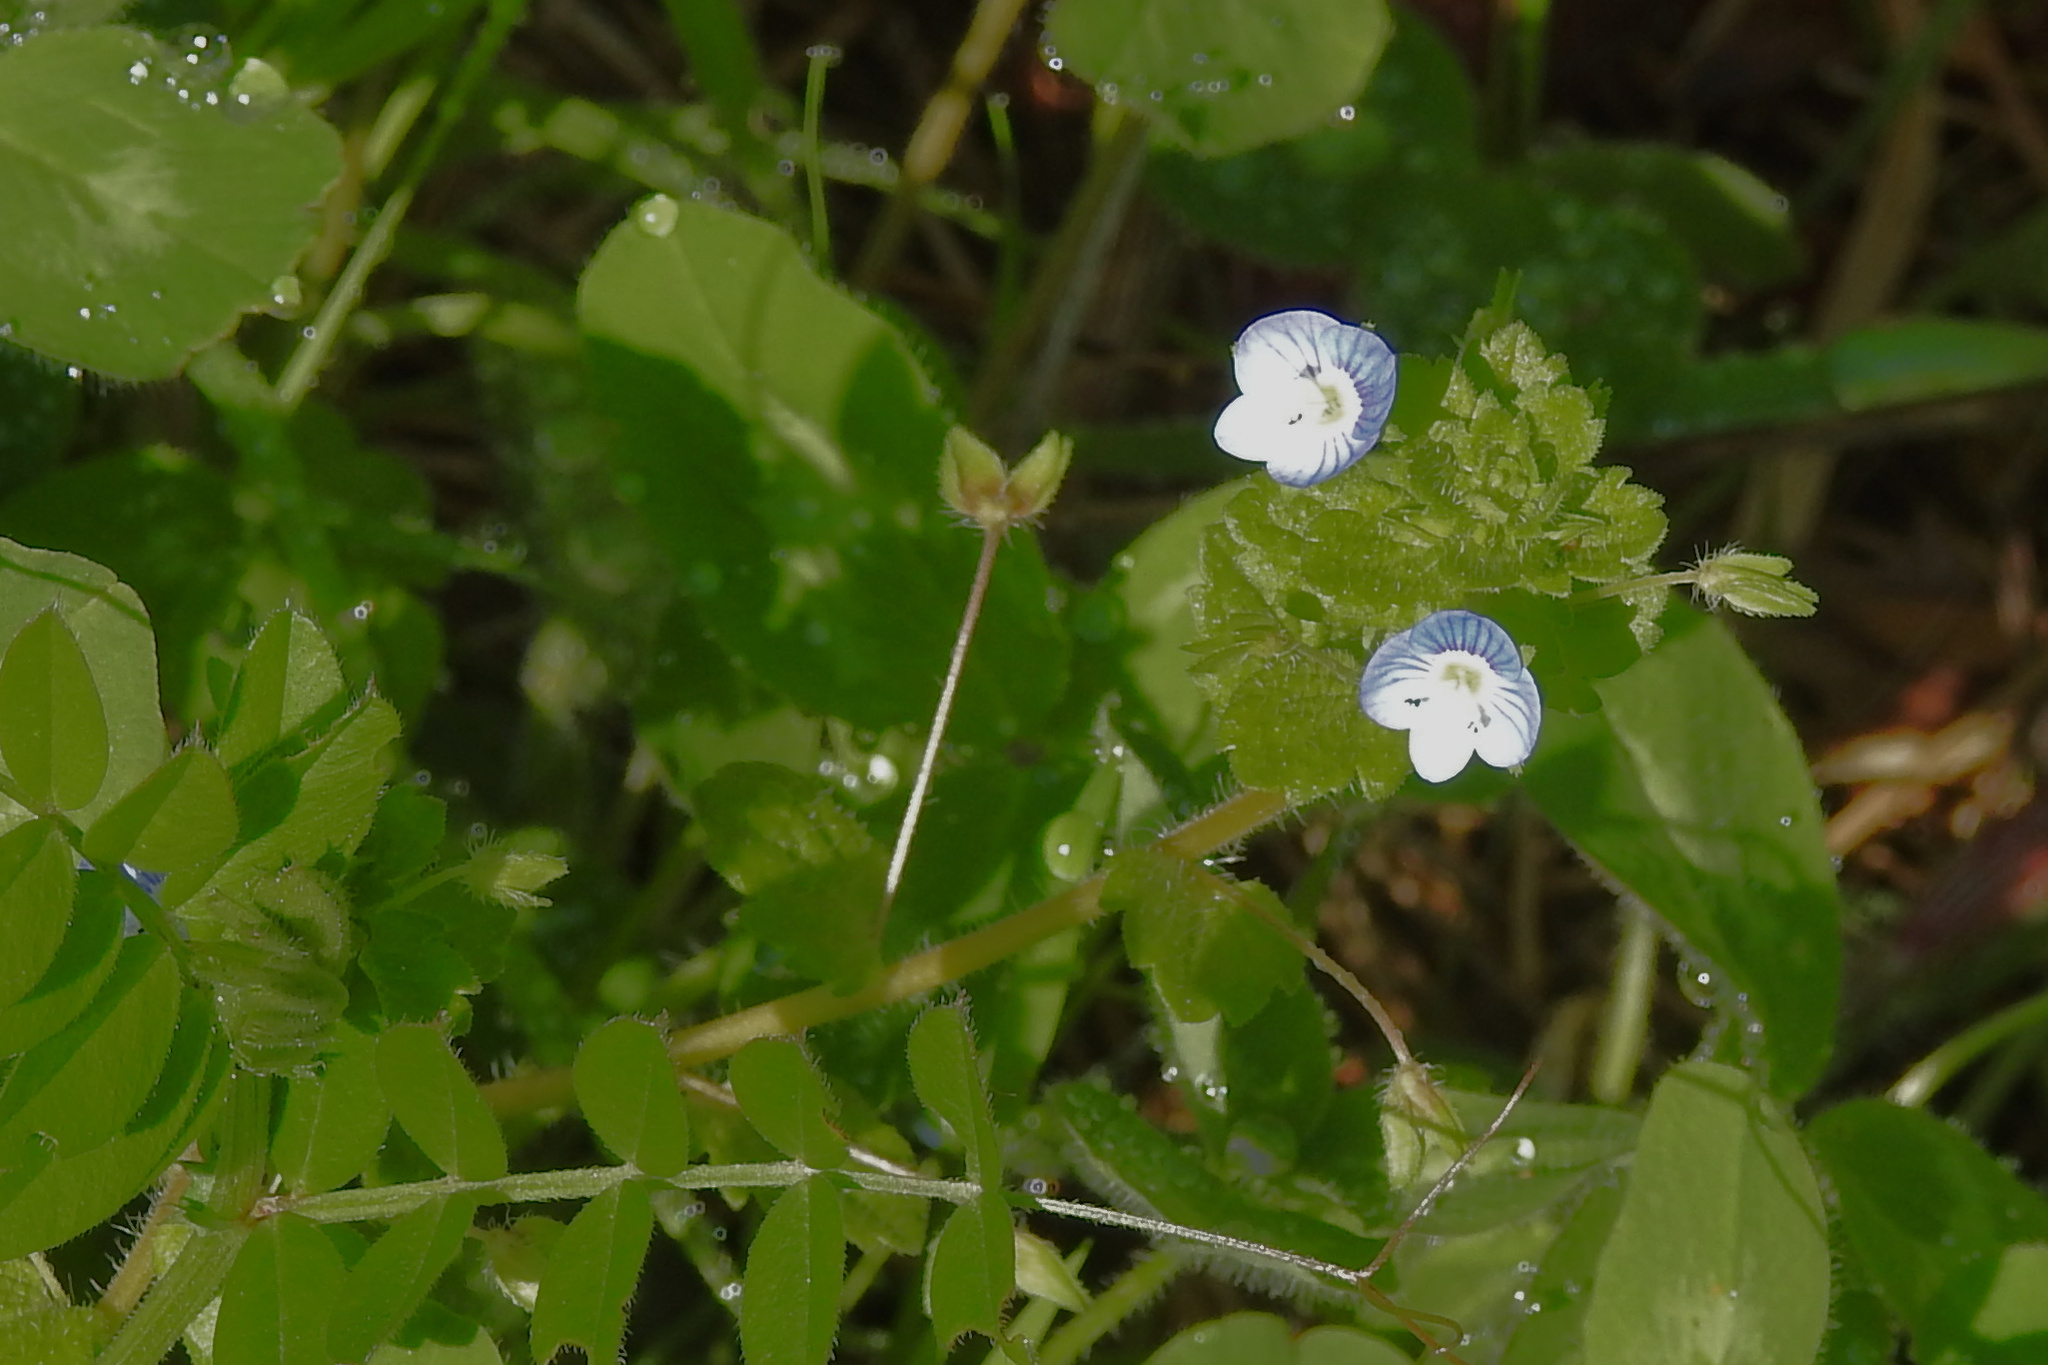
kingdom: Plantae
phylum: Tracheophyta
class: Magnoliopsida
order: Lamiales
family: Plantaginaceae
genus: Veronica
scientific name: Veronica persica
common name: Common field-speedwell
